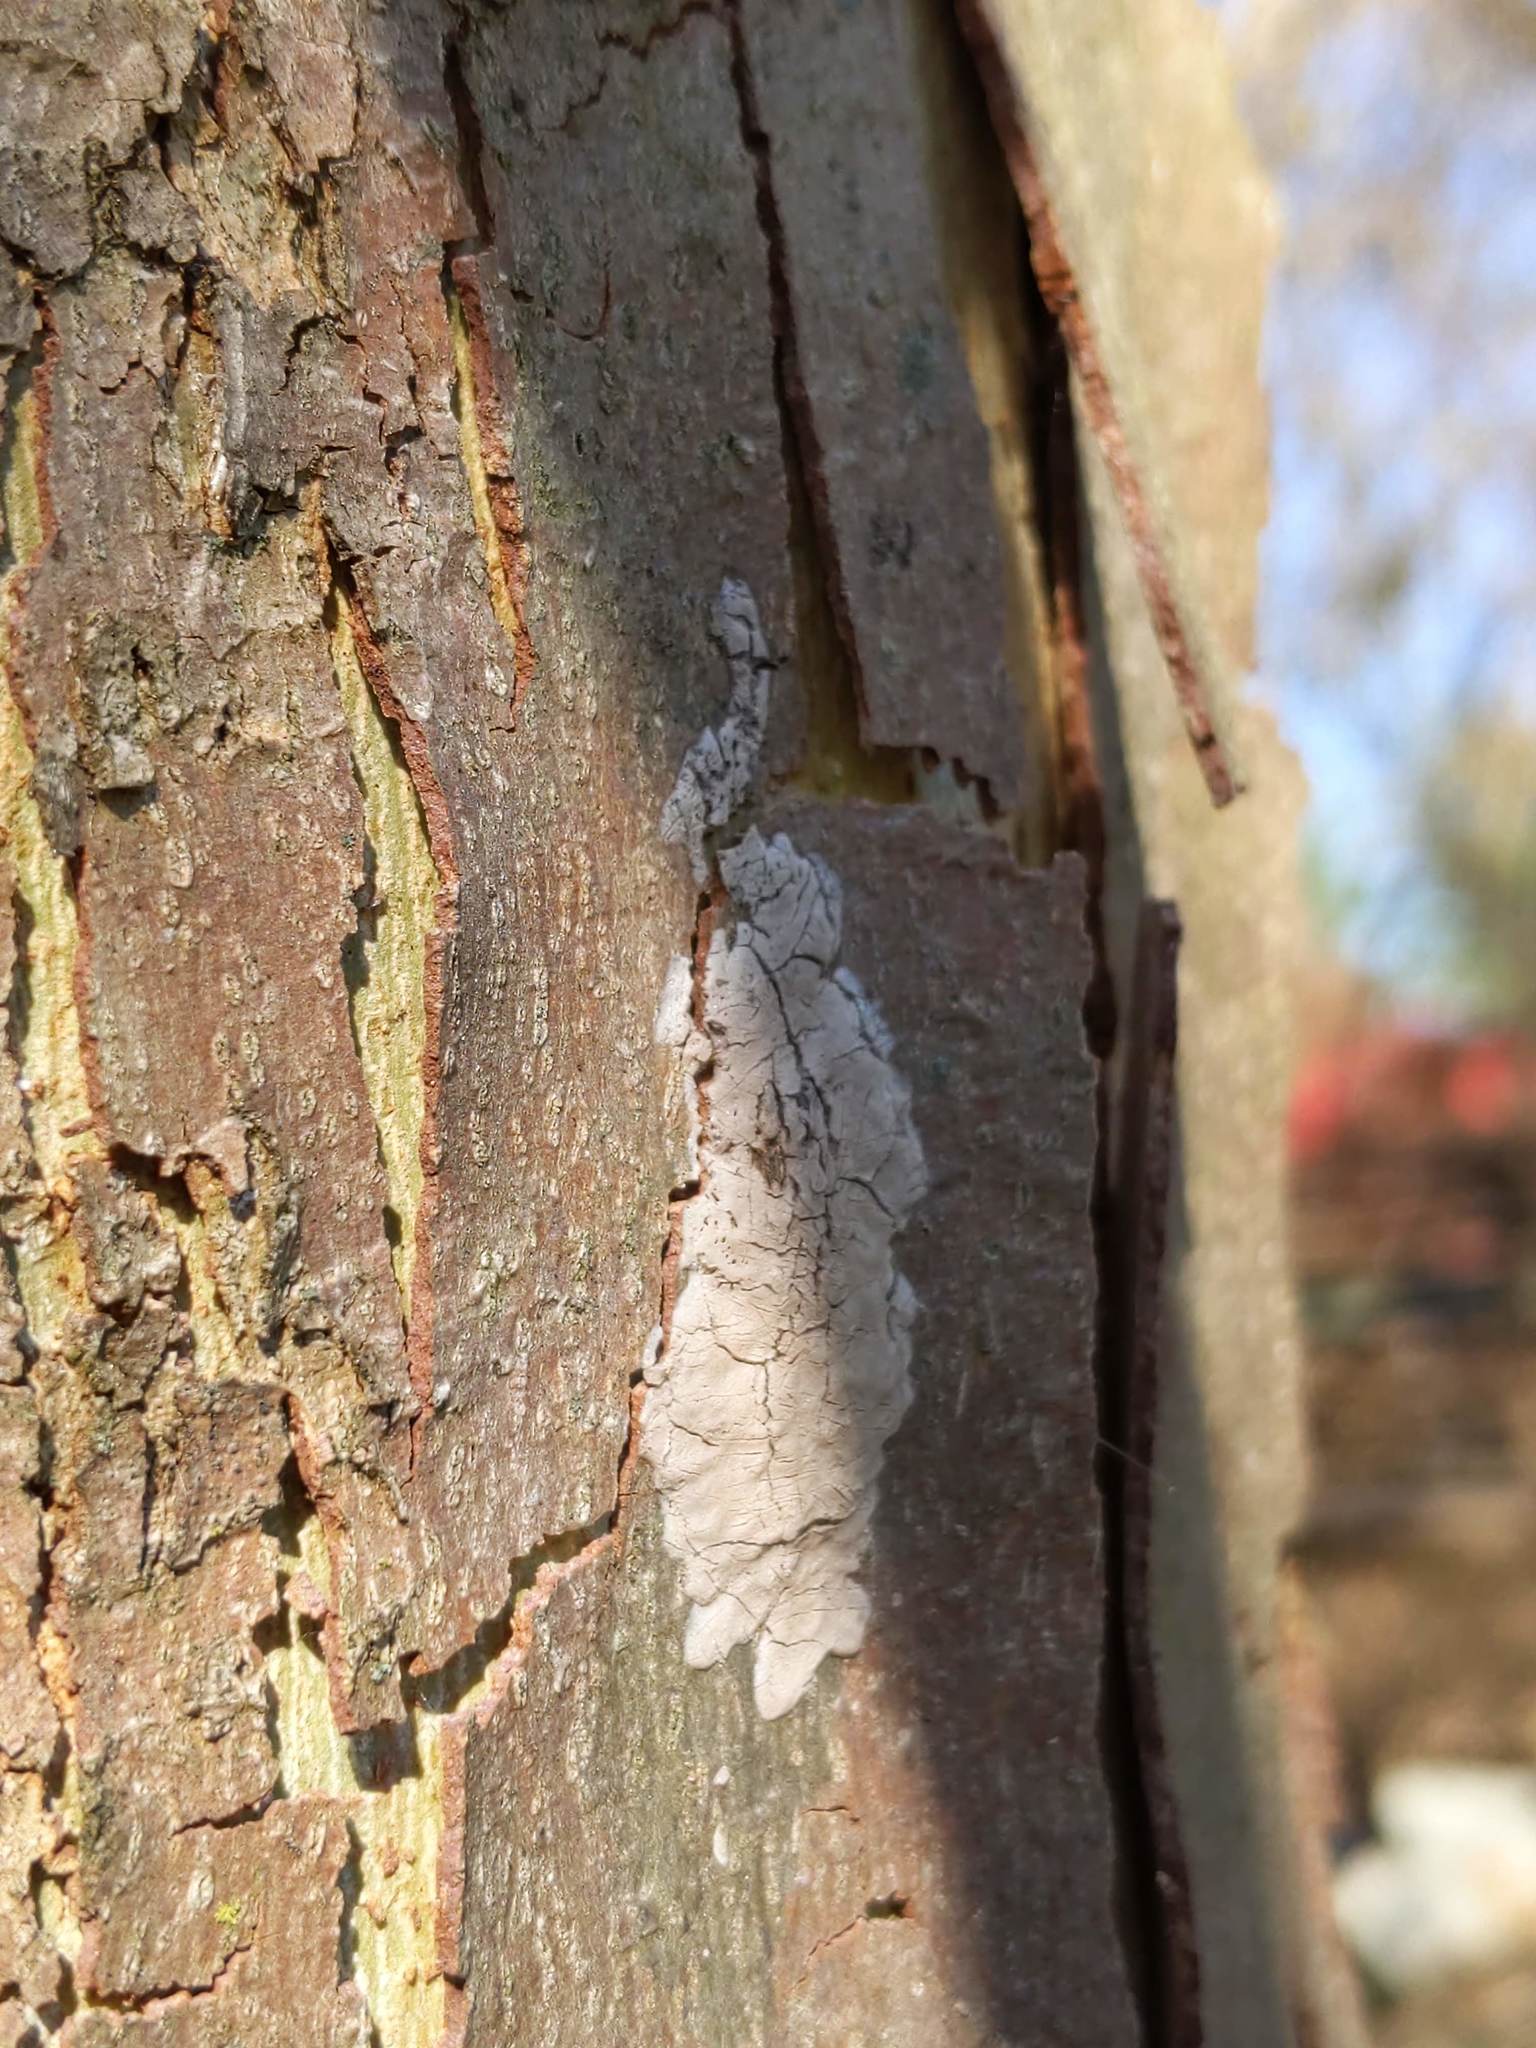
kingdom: Animalia
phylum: Arthropoda
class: Insecta
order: Hemiptera
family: Fulgoridae
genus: Lycorma
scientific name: Lycorma delicatula
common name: Spotted lanternfly
